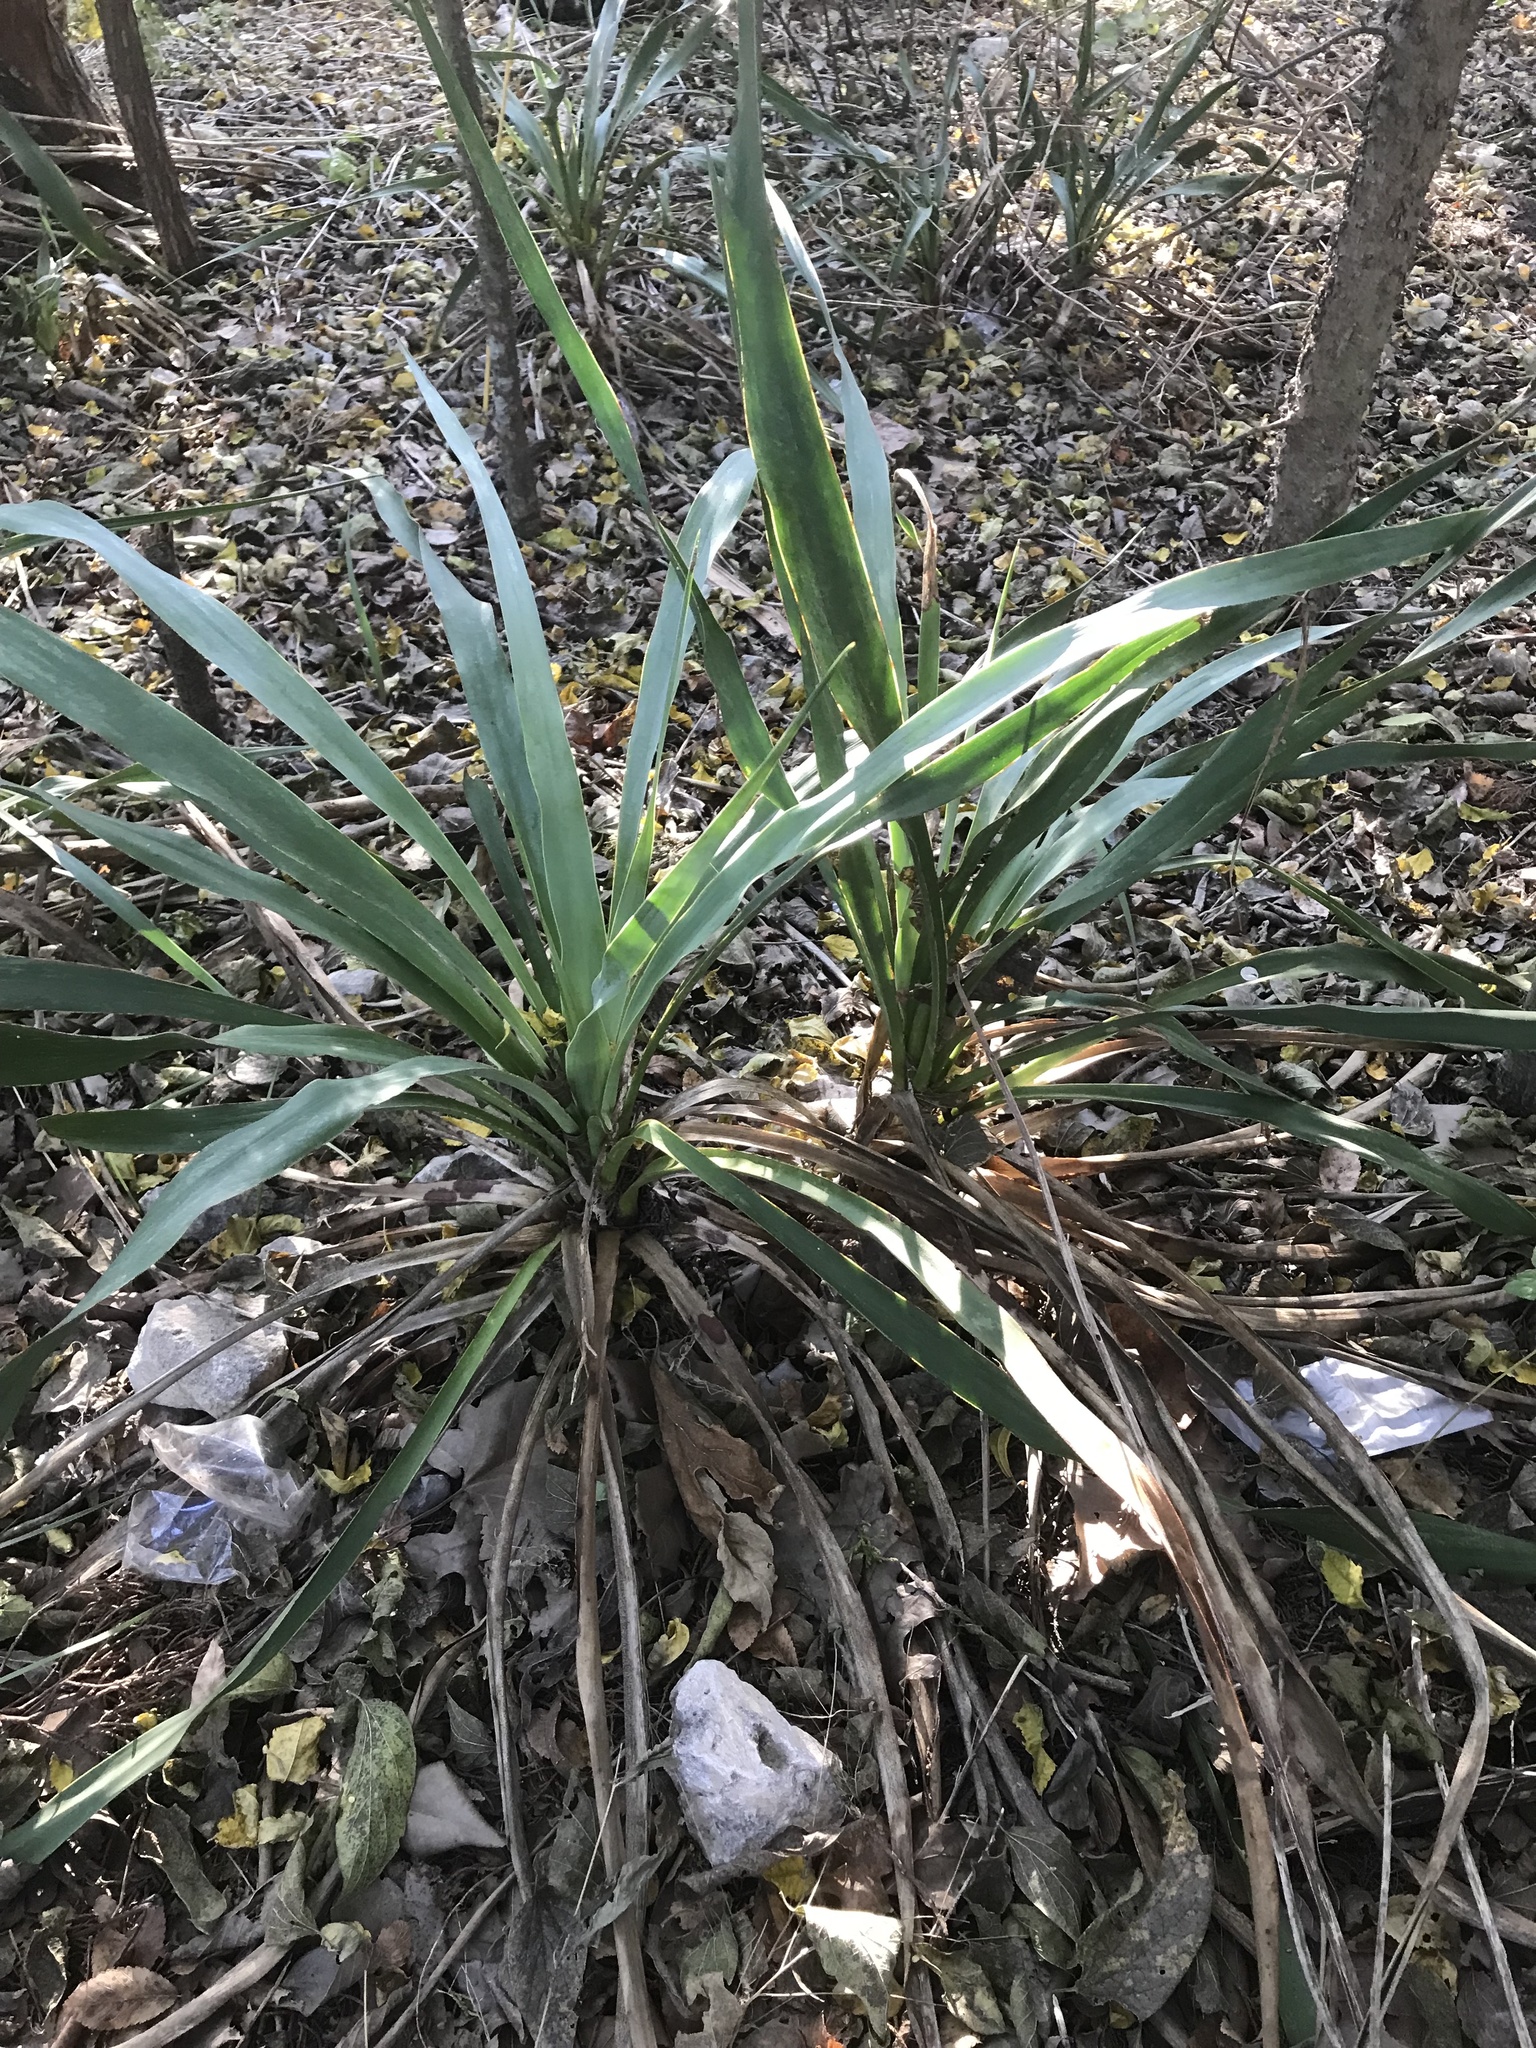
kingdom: Plantae
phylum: Tracheophyta
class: Liliopsida
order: Asparagales
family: Asparagaceae
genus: Yucca
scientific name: Yucca rupicola
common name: Twisted-leaf spanish-dagger
